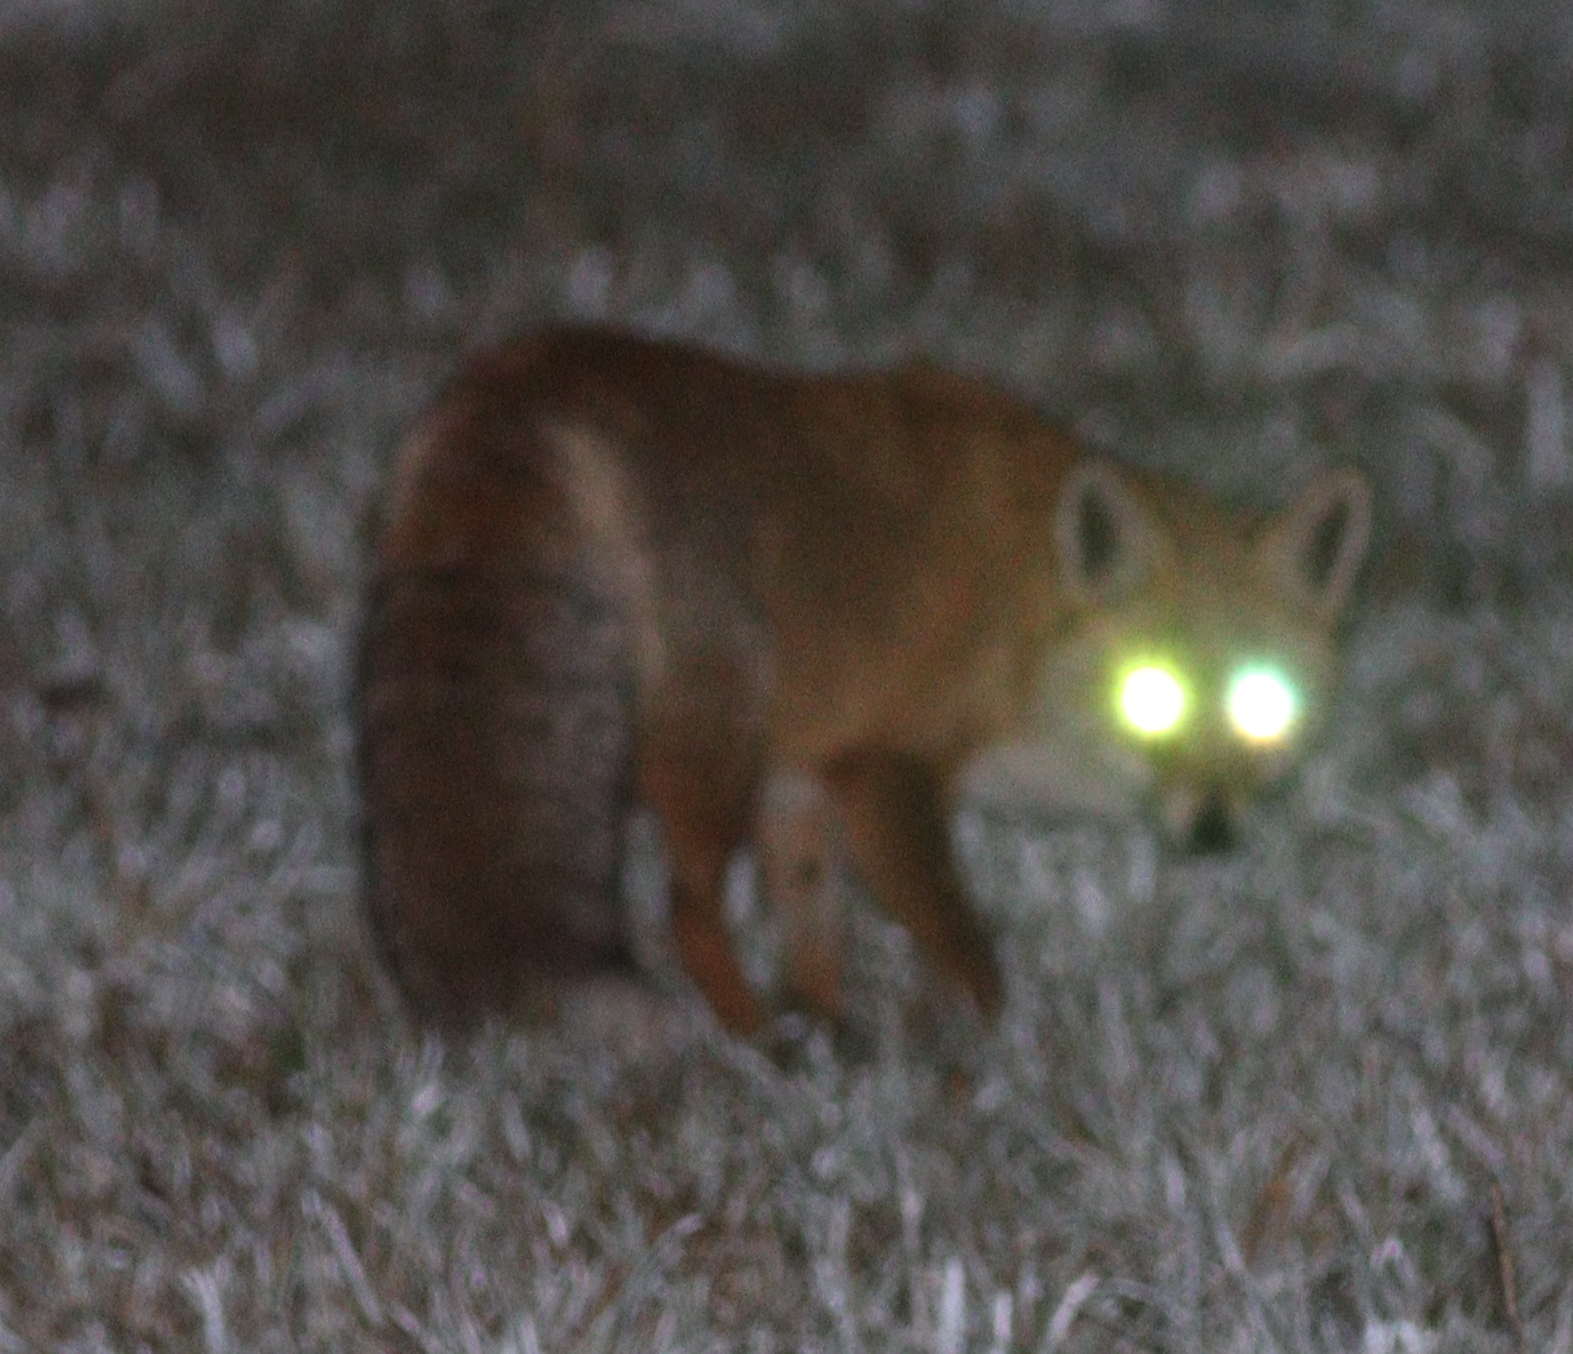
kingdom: Animalia
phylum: Chordata
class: Mammalia
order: Carnivora
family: Canidae
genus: Vulpes
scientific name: Vulpes vulpes
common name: Red fox
